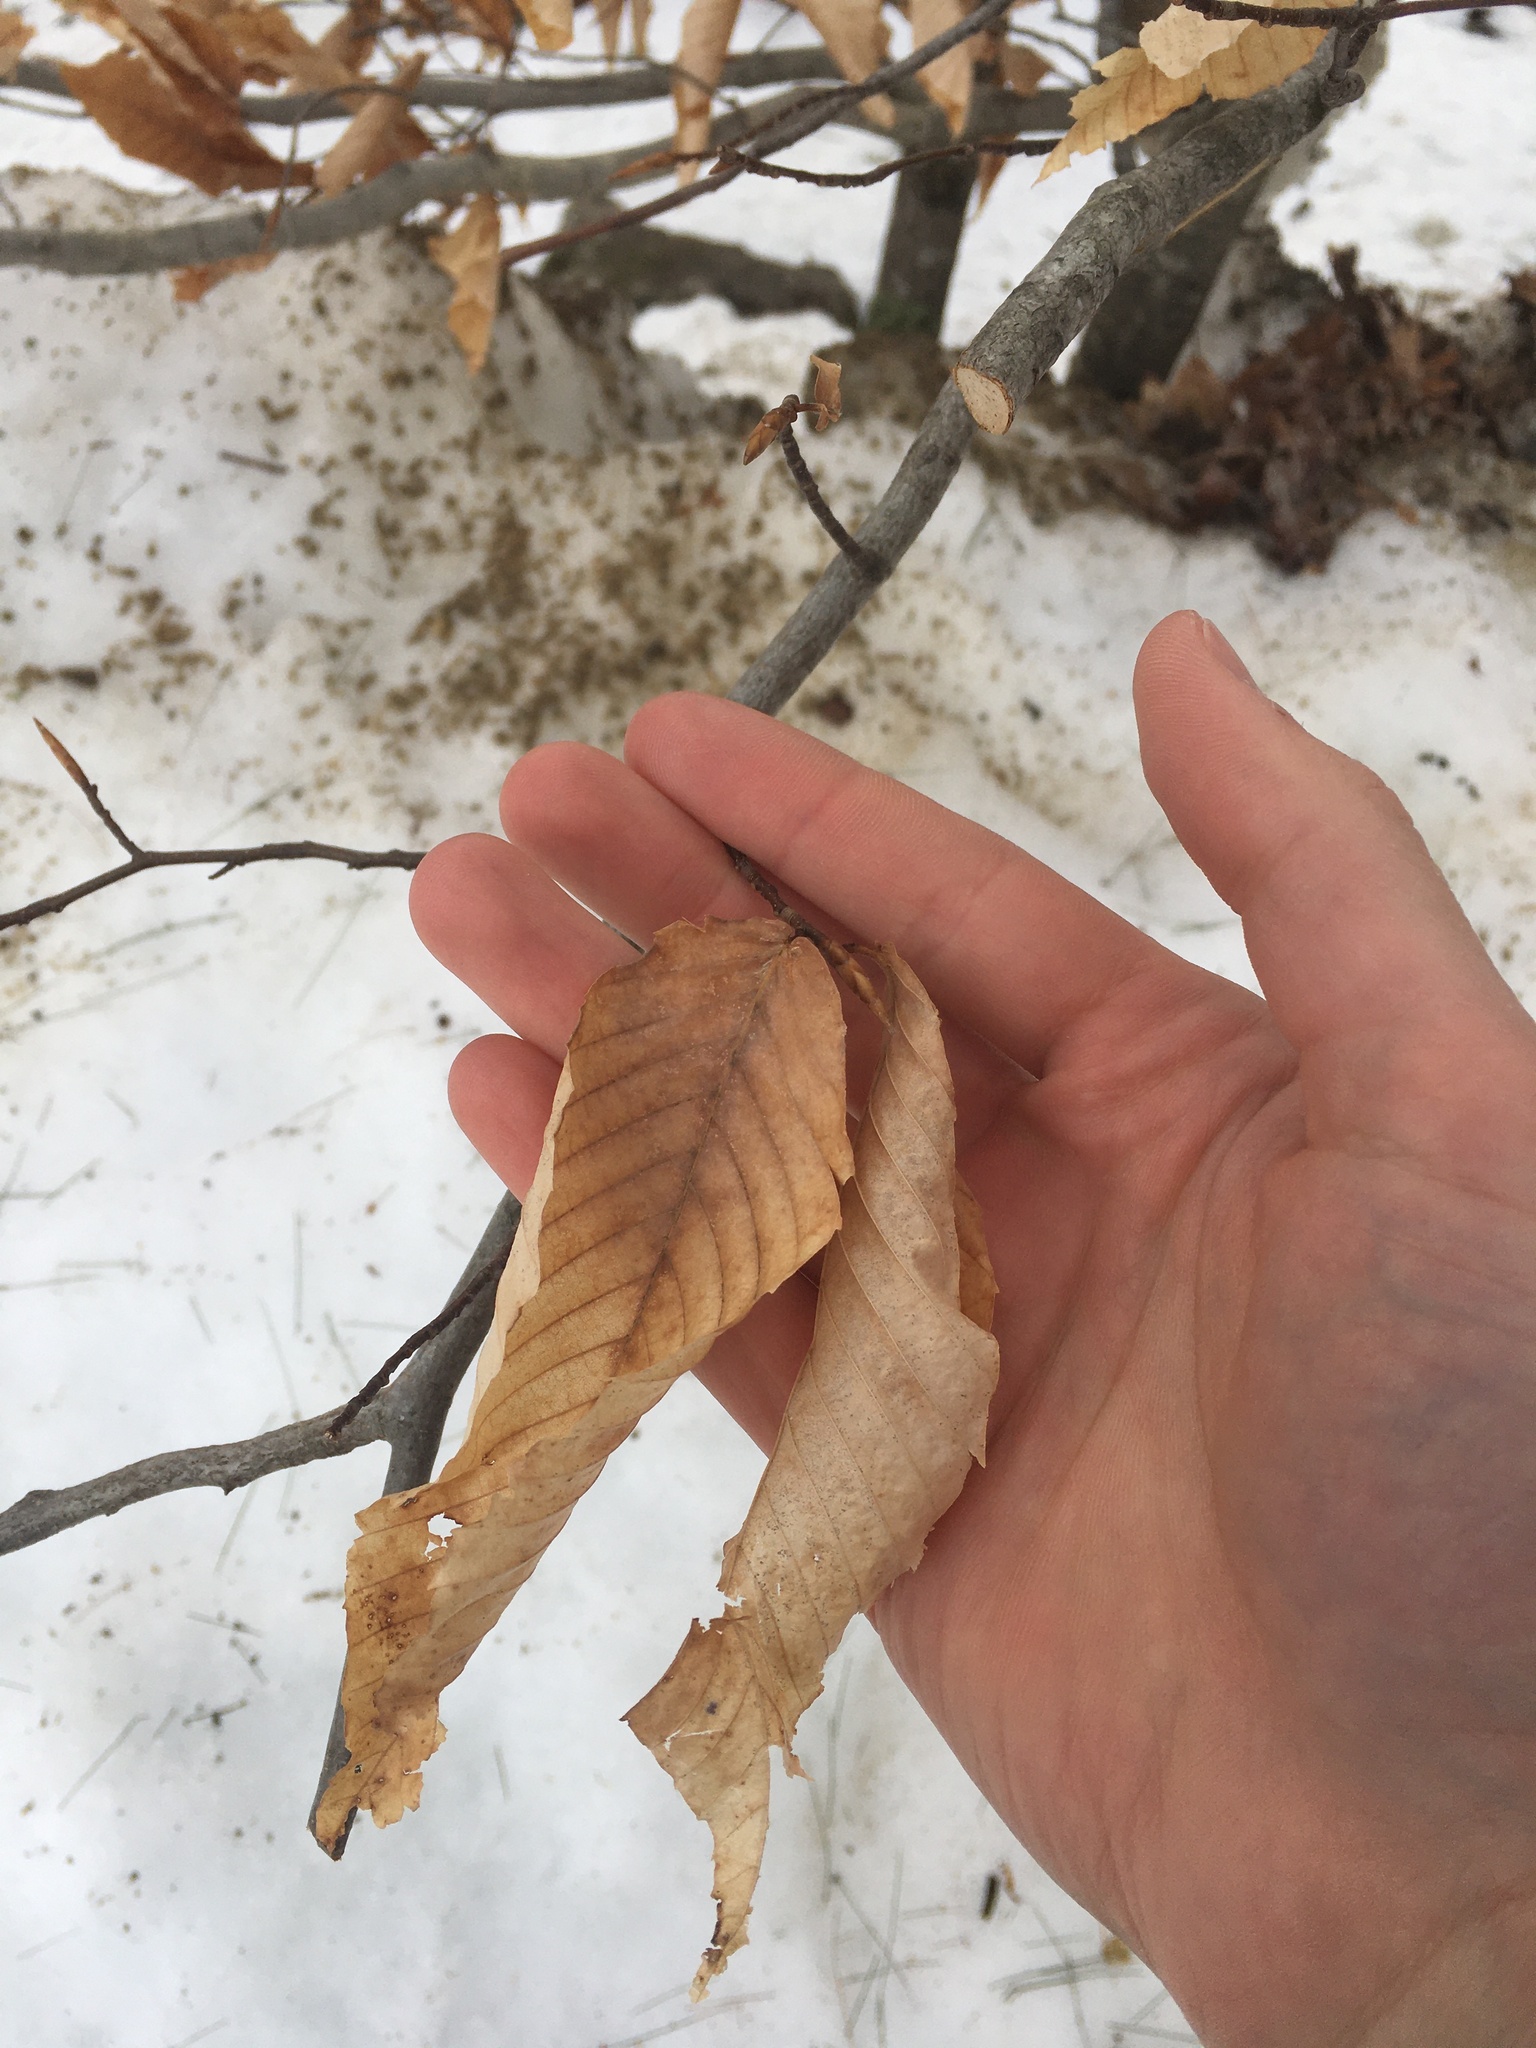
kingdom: Plantae
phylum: Tracheophyta
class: Magnoliopsida
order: Fagales
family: Fagaceae
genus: Fagus
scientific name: Fagus grandifolia
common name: American beech
